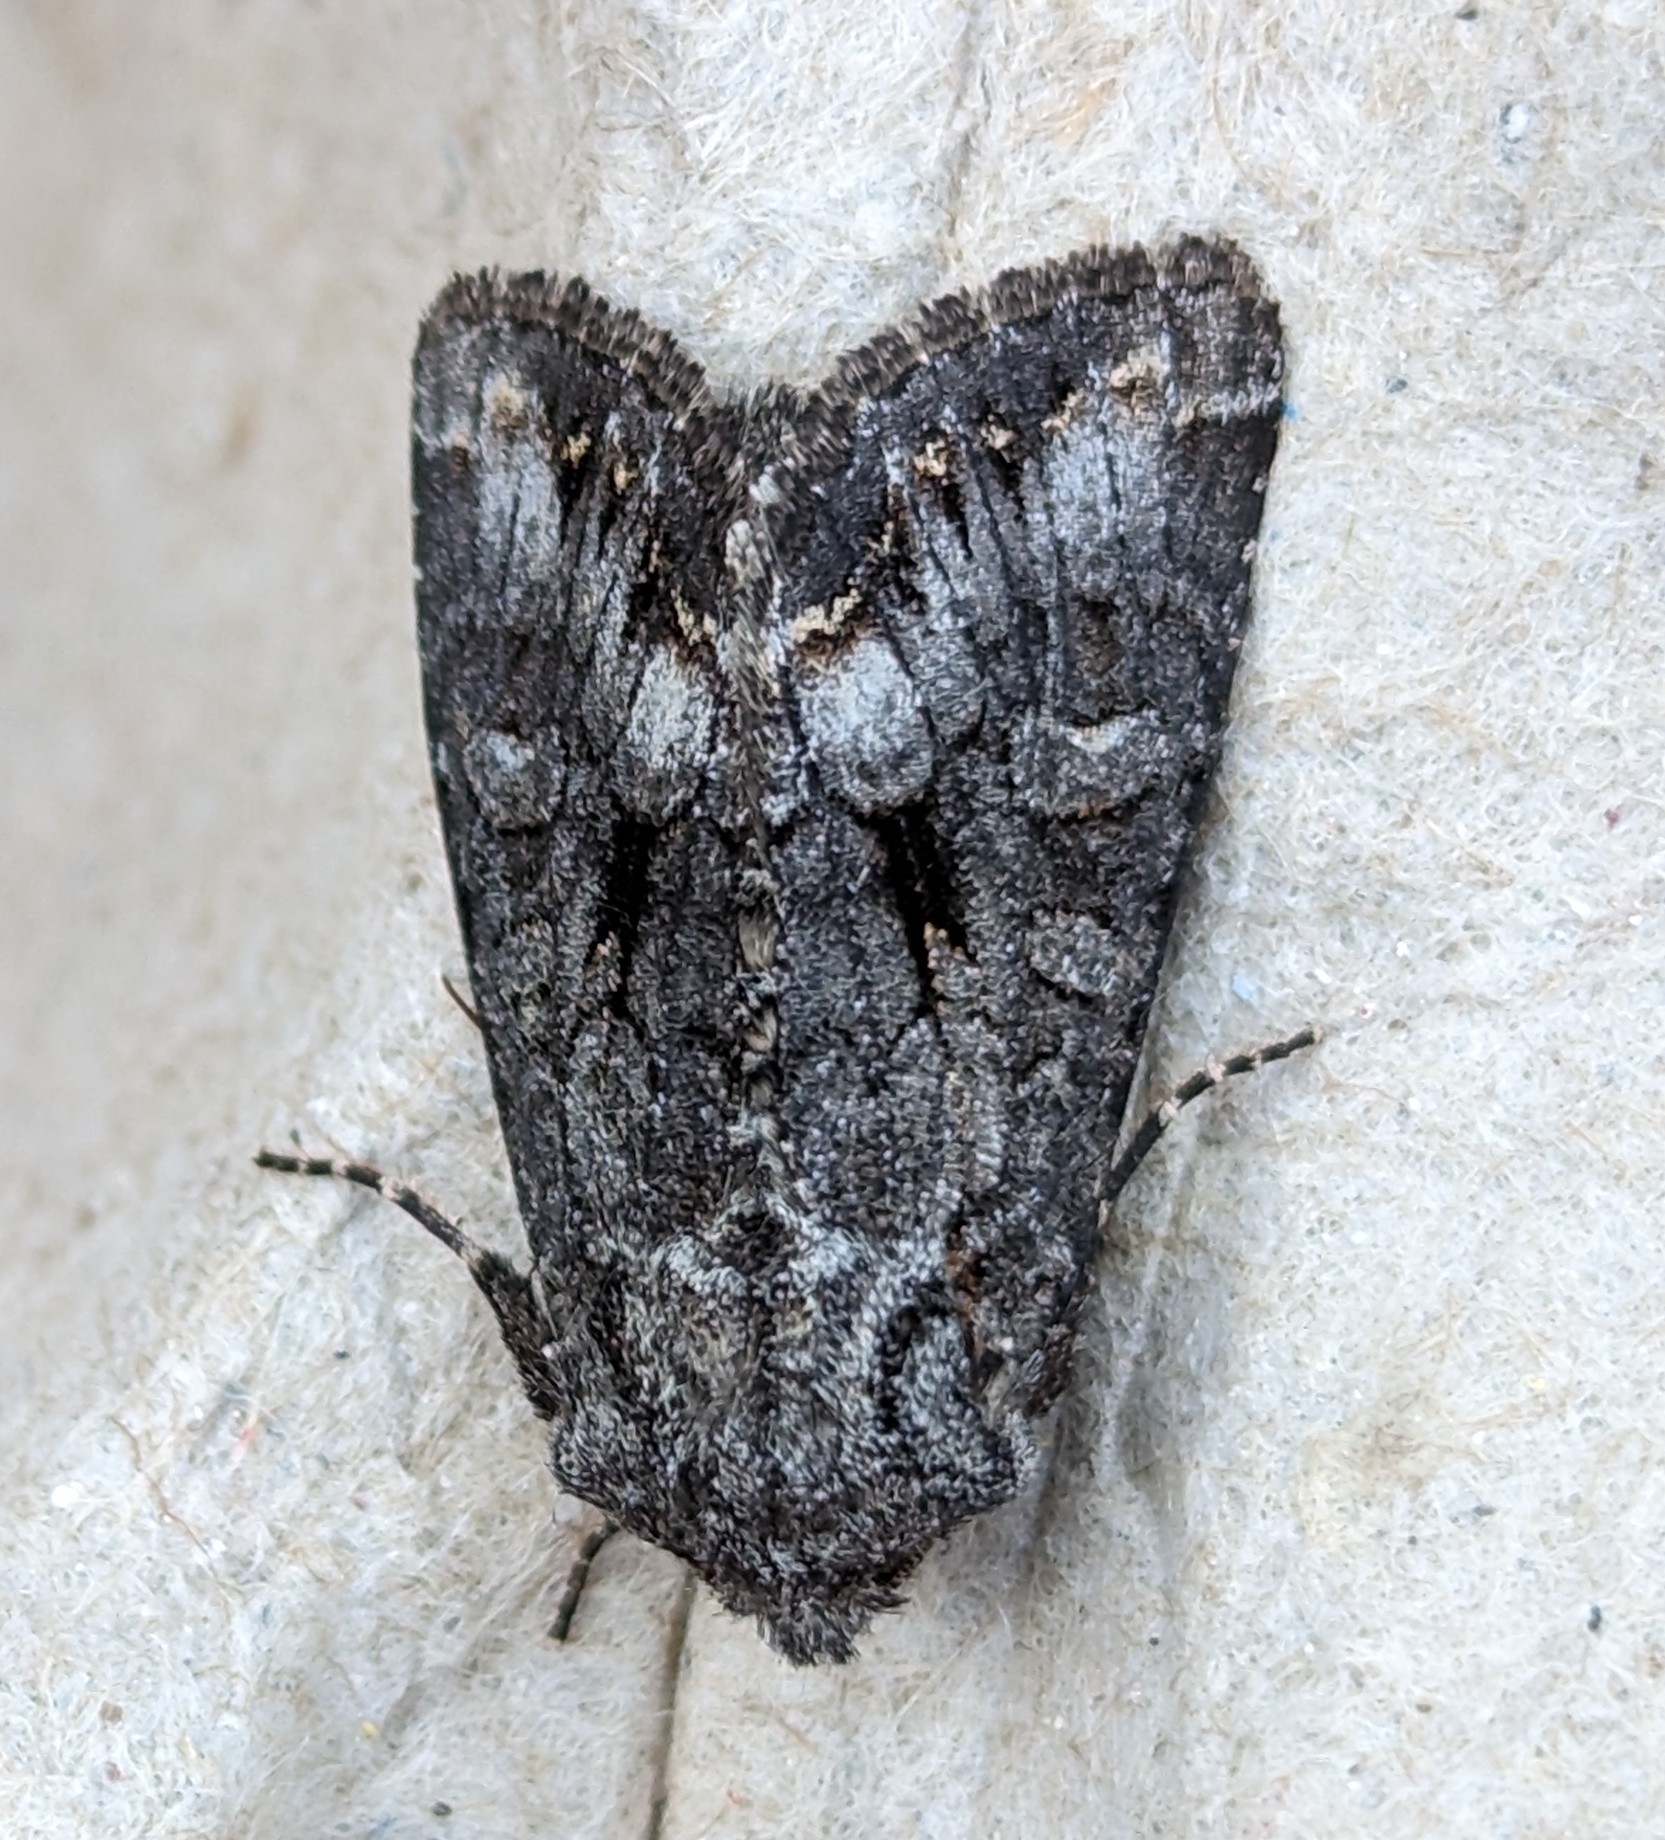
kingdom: Animalia
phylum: Arthropoda
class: Insecta
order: Lepidoptera
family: Noctuidae
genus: Papestra
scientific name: Papestra quadrata
